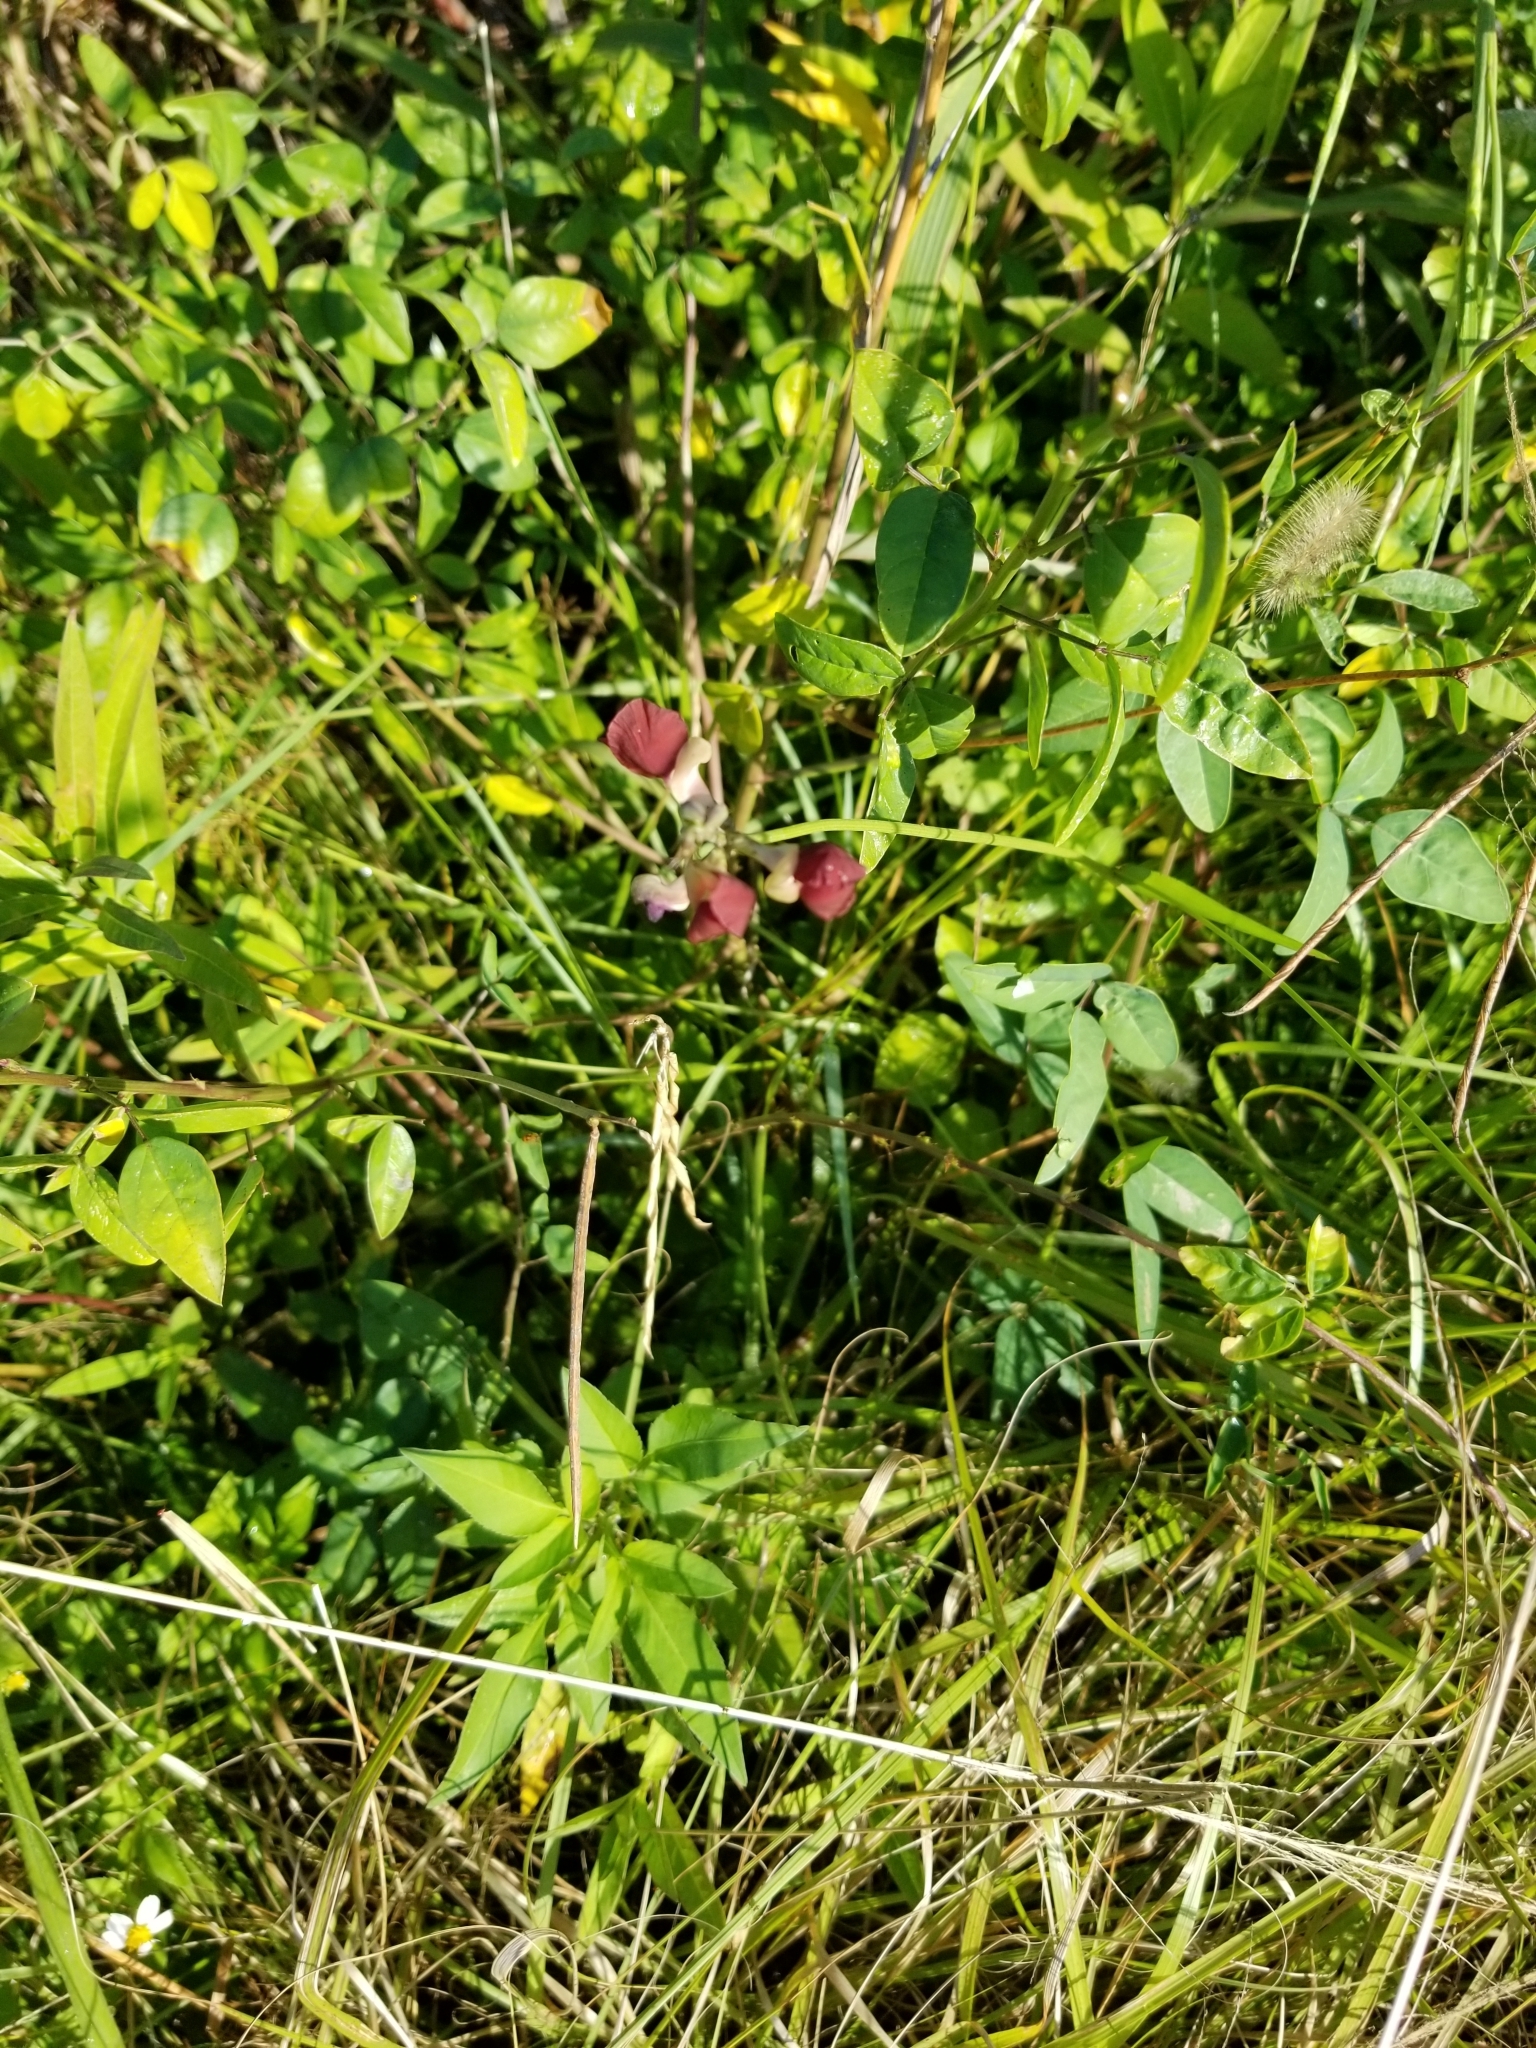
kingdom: Plantae
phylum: Tracheophyta
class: Magnoliopsida
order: Fabales
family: Fabaceae
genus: Macroptilium
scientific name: Macroptilium lathyroides
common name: Wild bushbean
